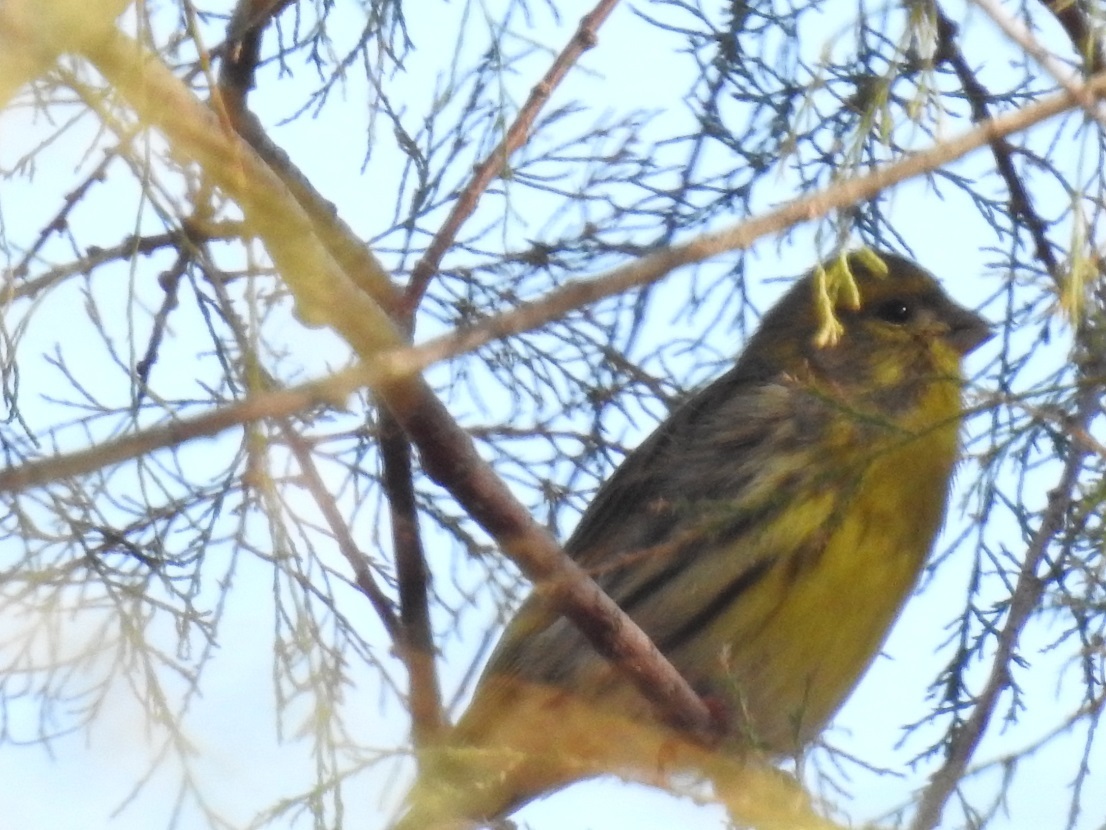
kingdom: Animalia
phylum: Chordata
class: Aves
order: Passeriformes
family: Fringillidae
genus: Serinus
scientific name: Serinus serinus
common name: European serin
